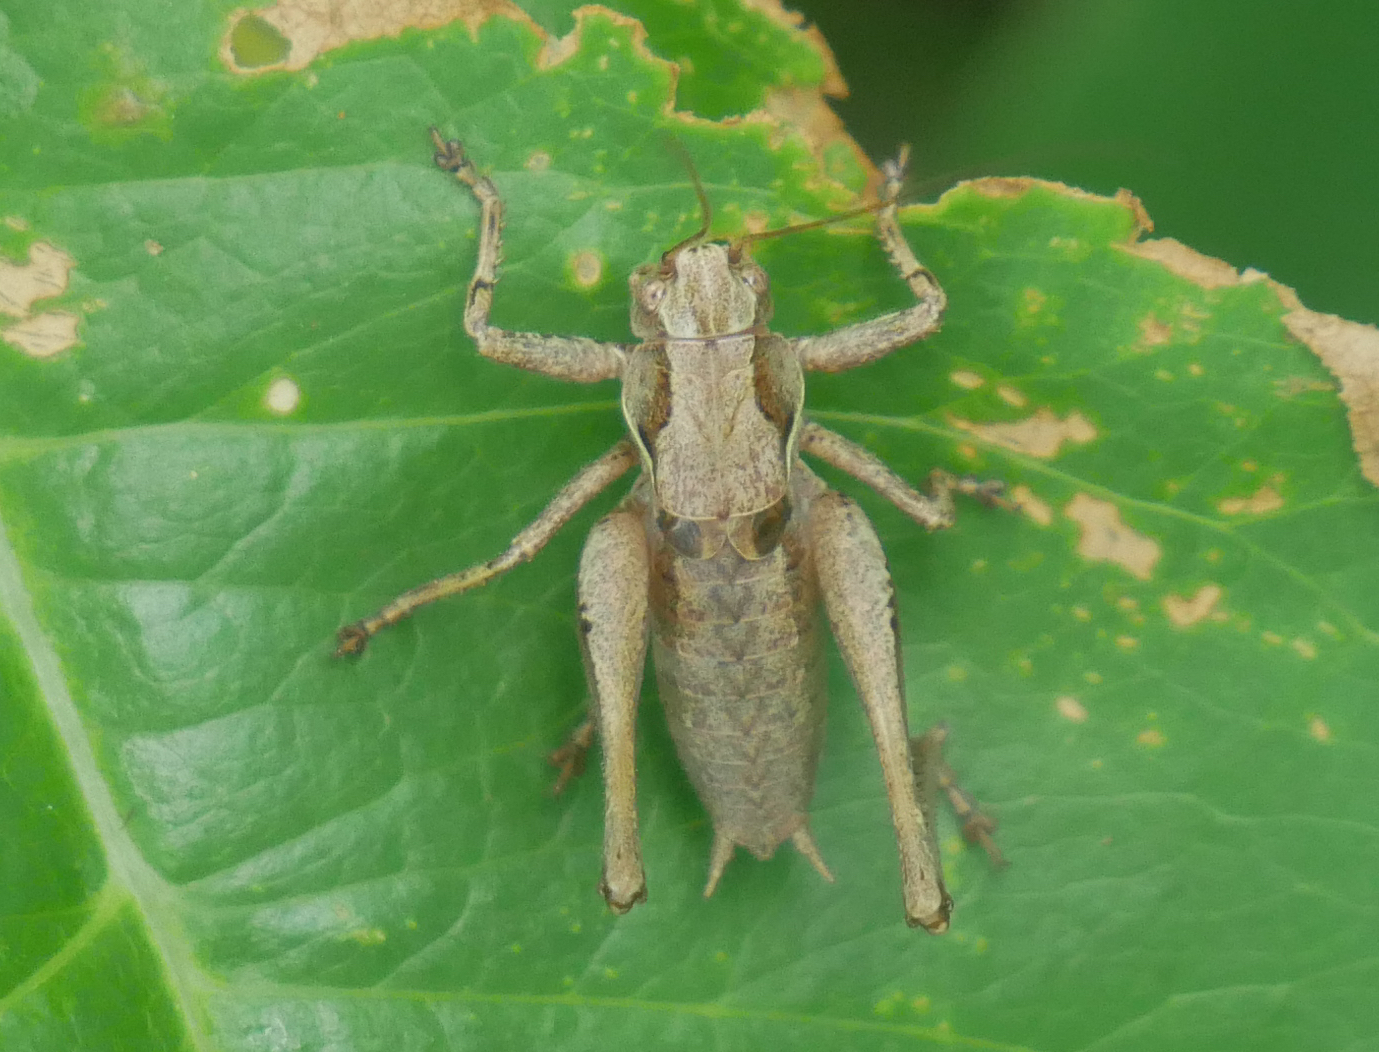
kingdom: Animalia
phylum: Arthropoda
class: Insecta
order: Orthoptera
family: Tettigoniidae
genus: Pholidoptera
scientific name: Pholidoptera griseoaptera
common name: Dark bush-cricket
